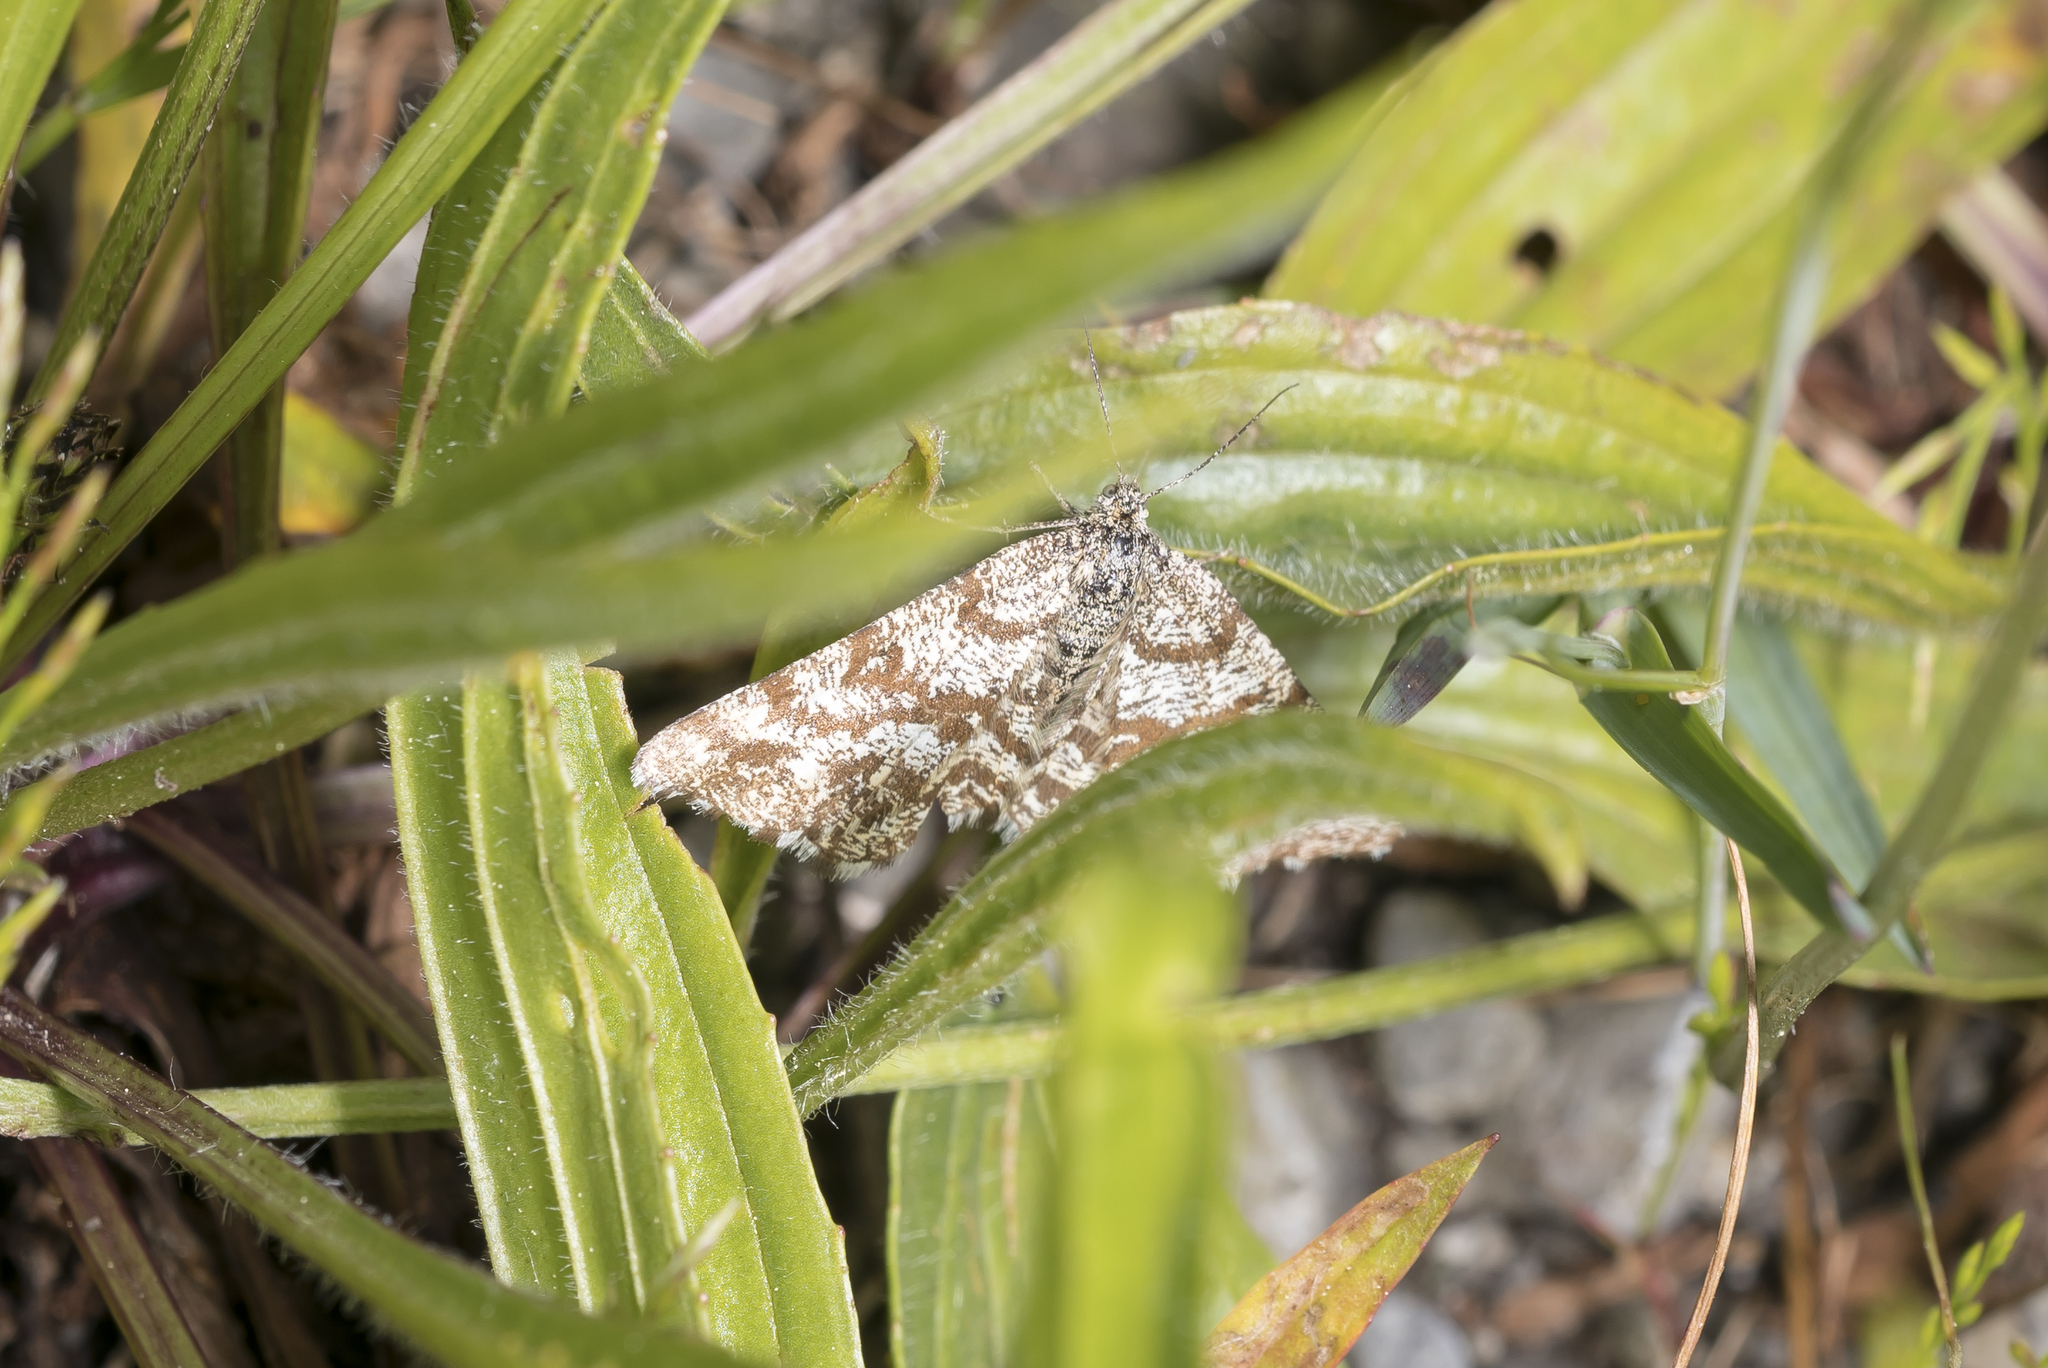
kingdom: Animalia
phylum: Arthropoda
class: Insecta
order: Lepidoptera
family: Geometridae
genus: Ematurga
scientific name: Ematurga atomaria
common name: Common heath
